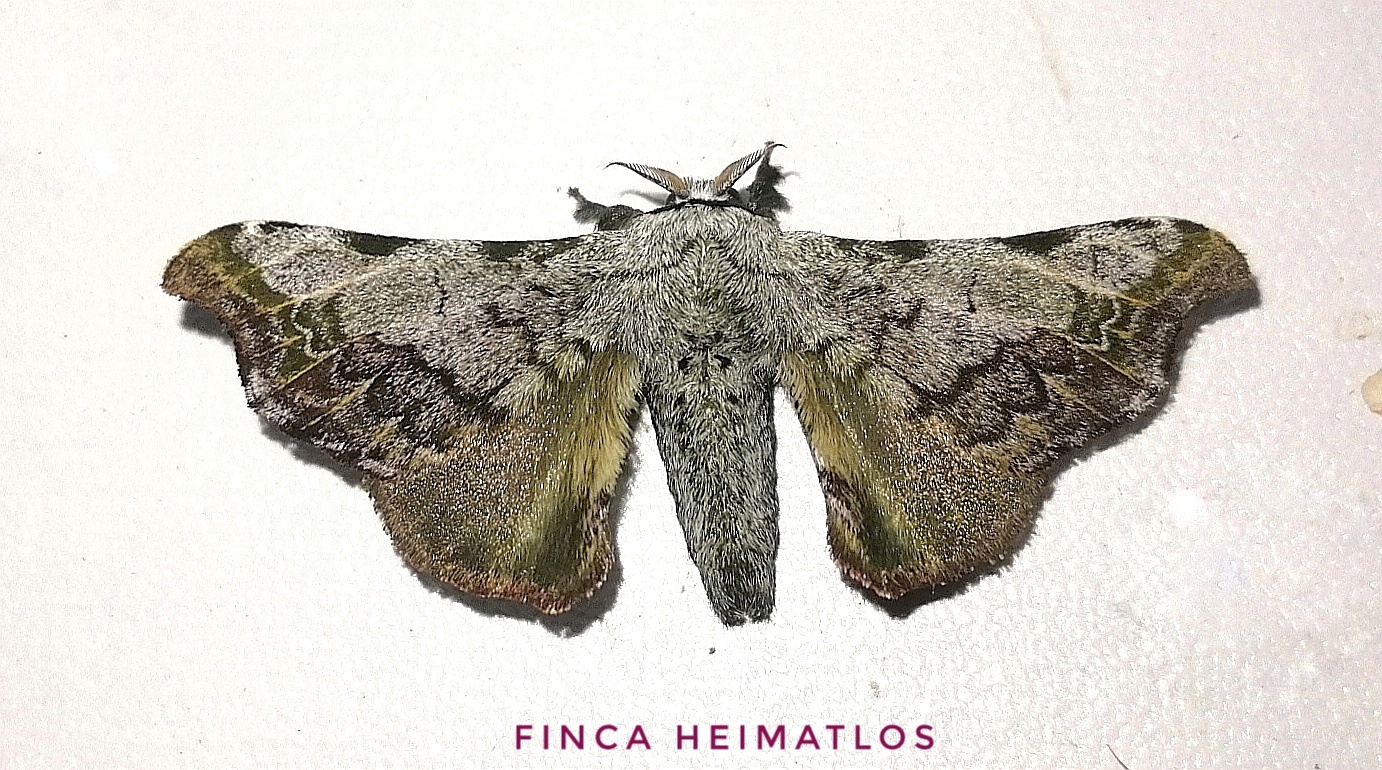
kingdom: Animalia
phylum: Arthropoda
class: Insecta
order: Lepidoptera
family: Bombycidae
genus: Quentalia
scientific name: Quentalia ephonia
